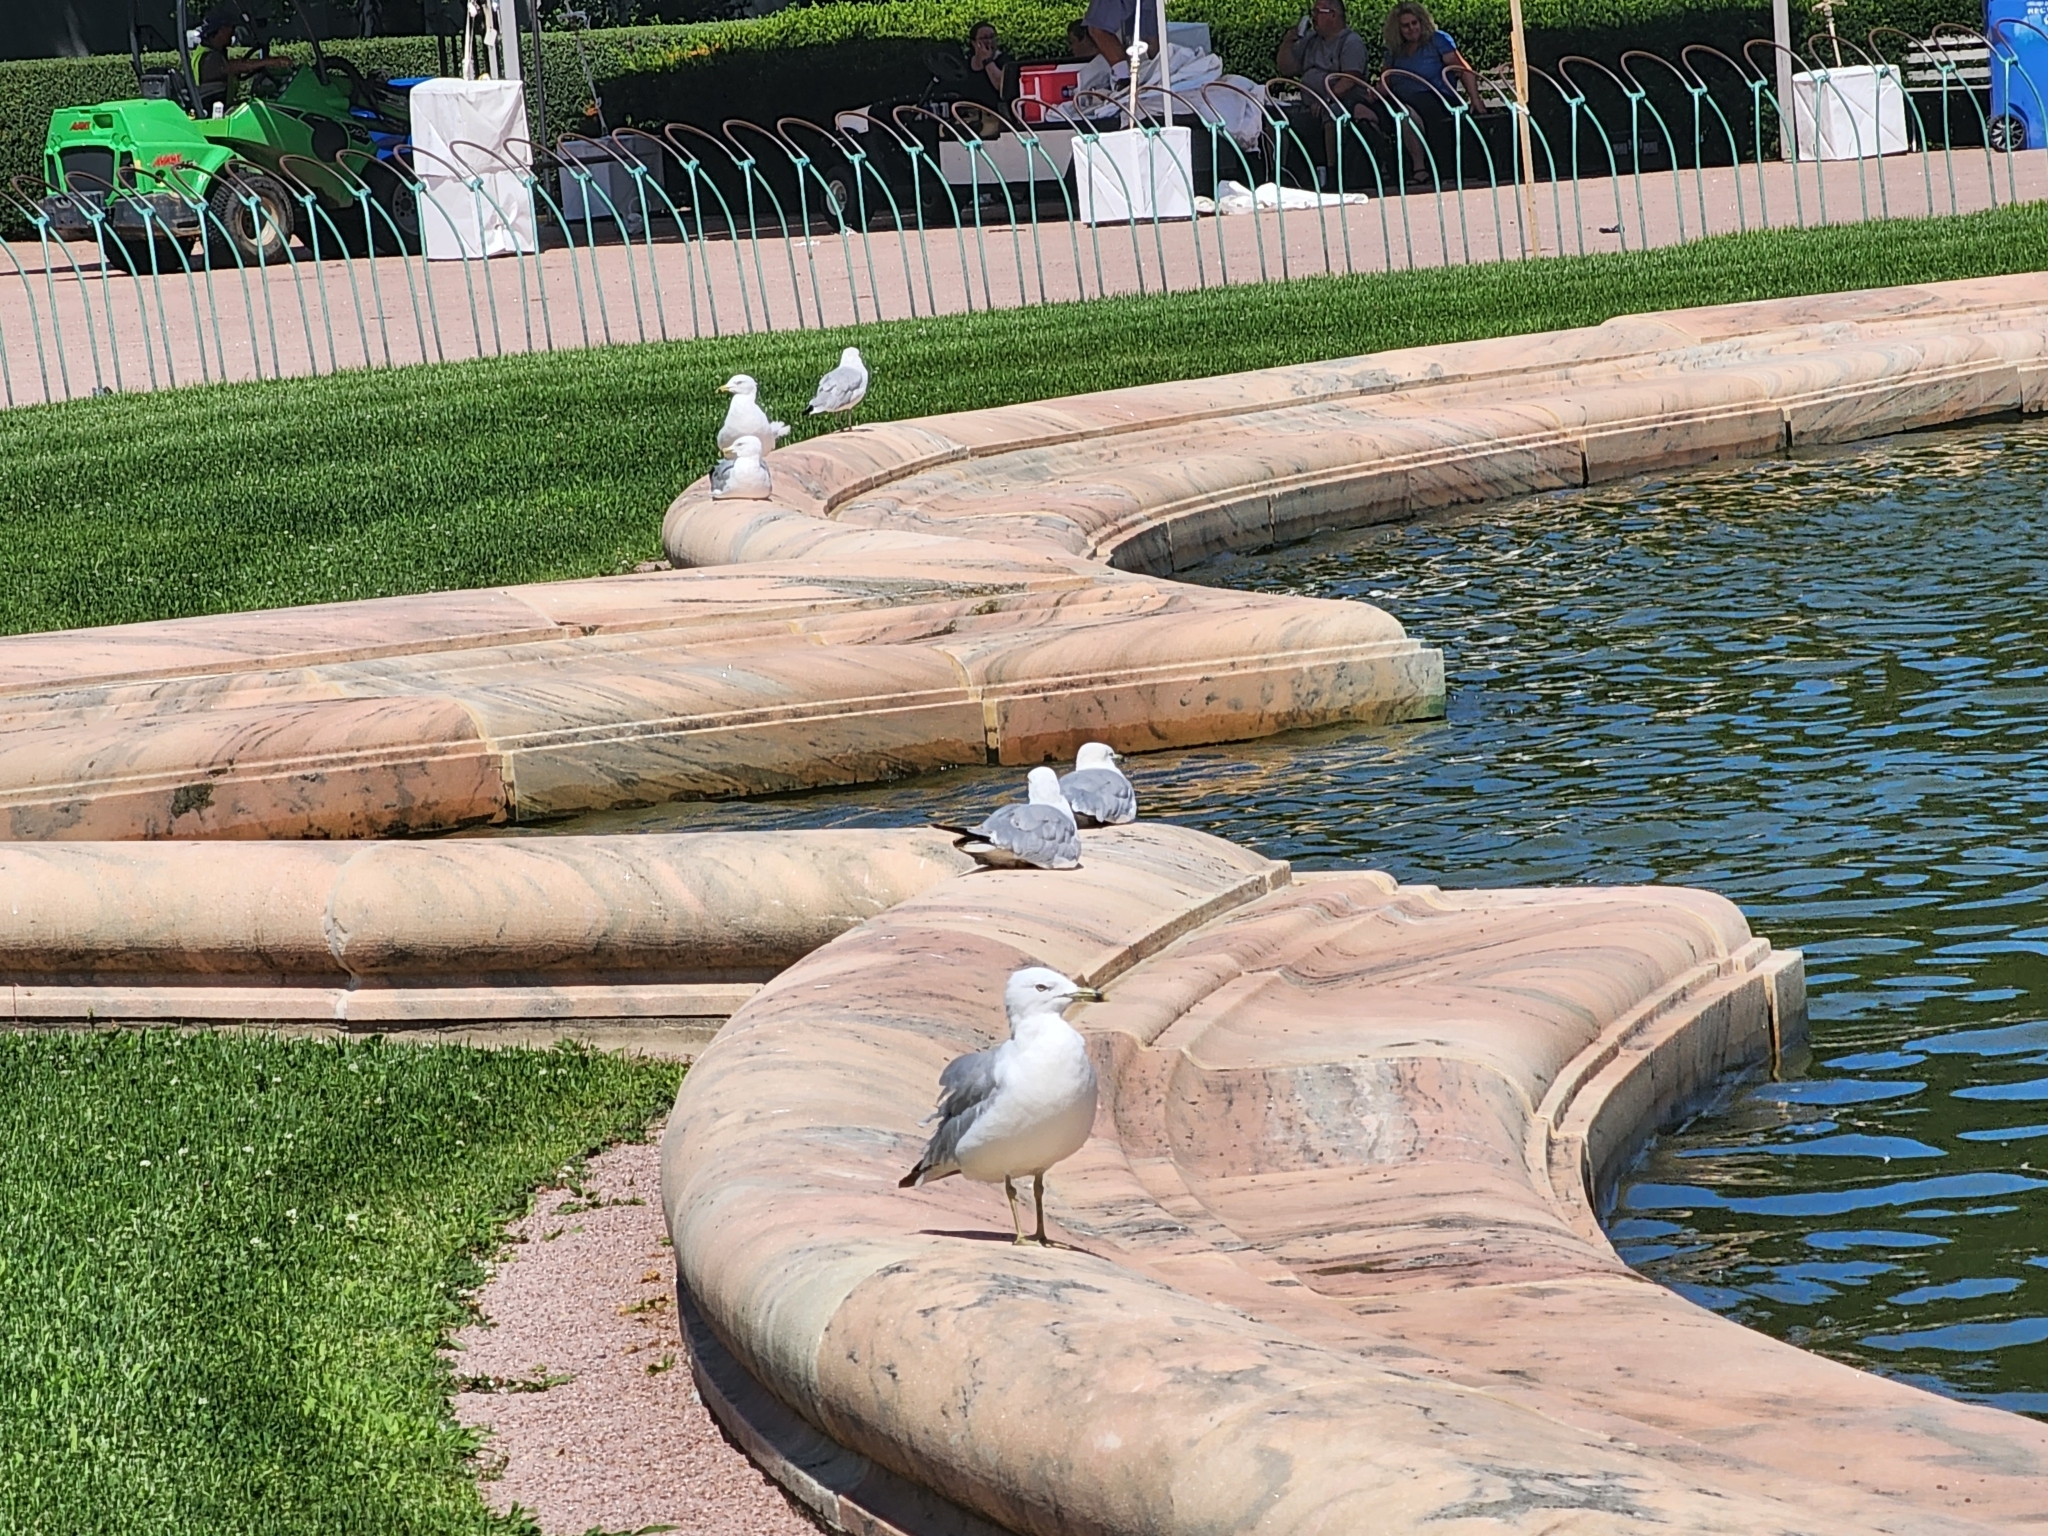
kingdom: Animalia
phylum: Chordata
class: Aves
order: Charadriiformes
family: Laridae
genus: Larus
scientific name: Larus delawarensis
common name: Ring-billed gull
